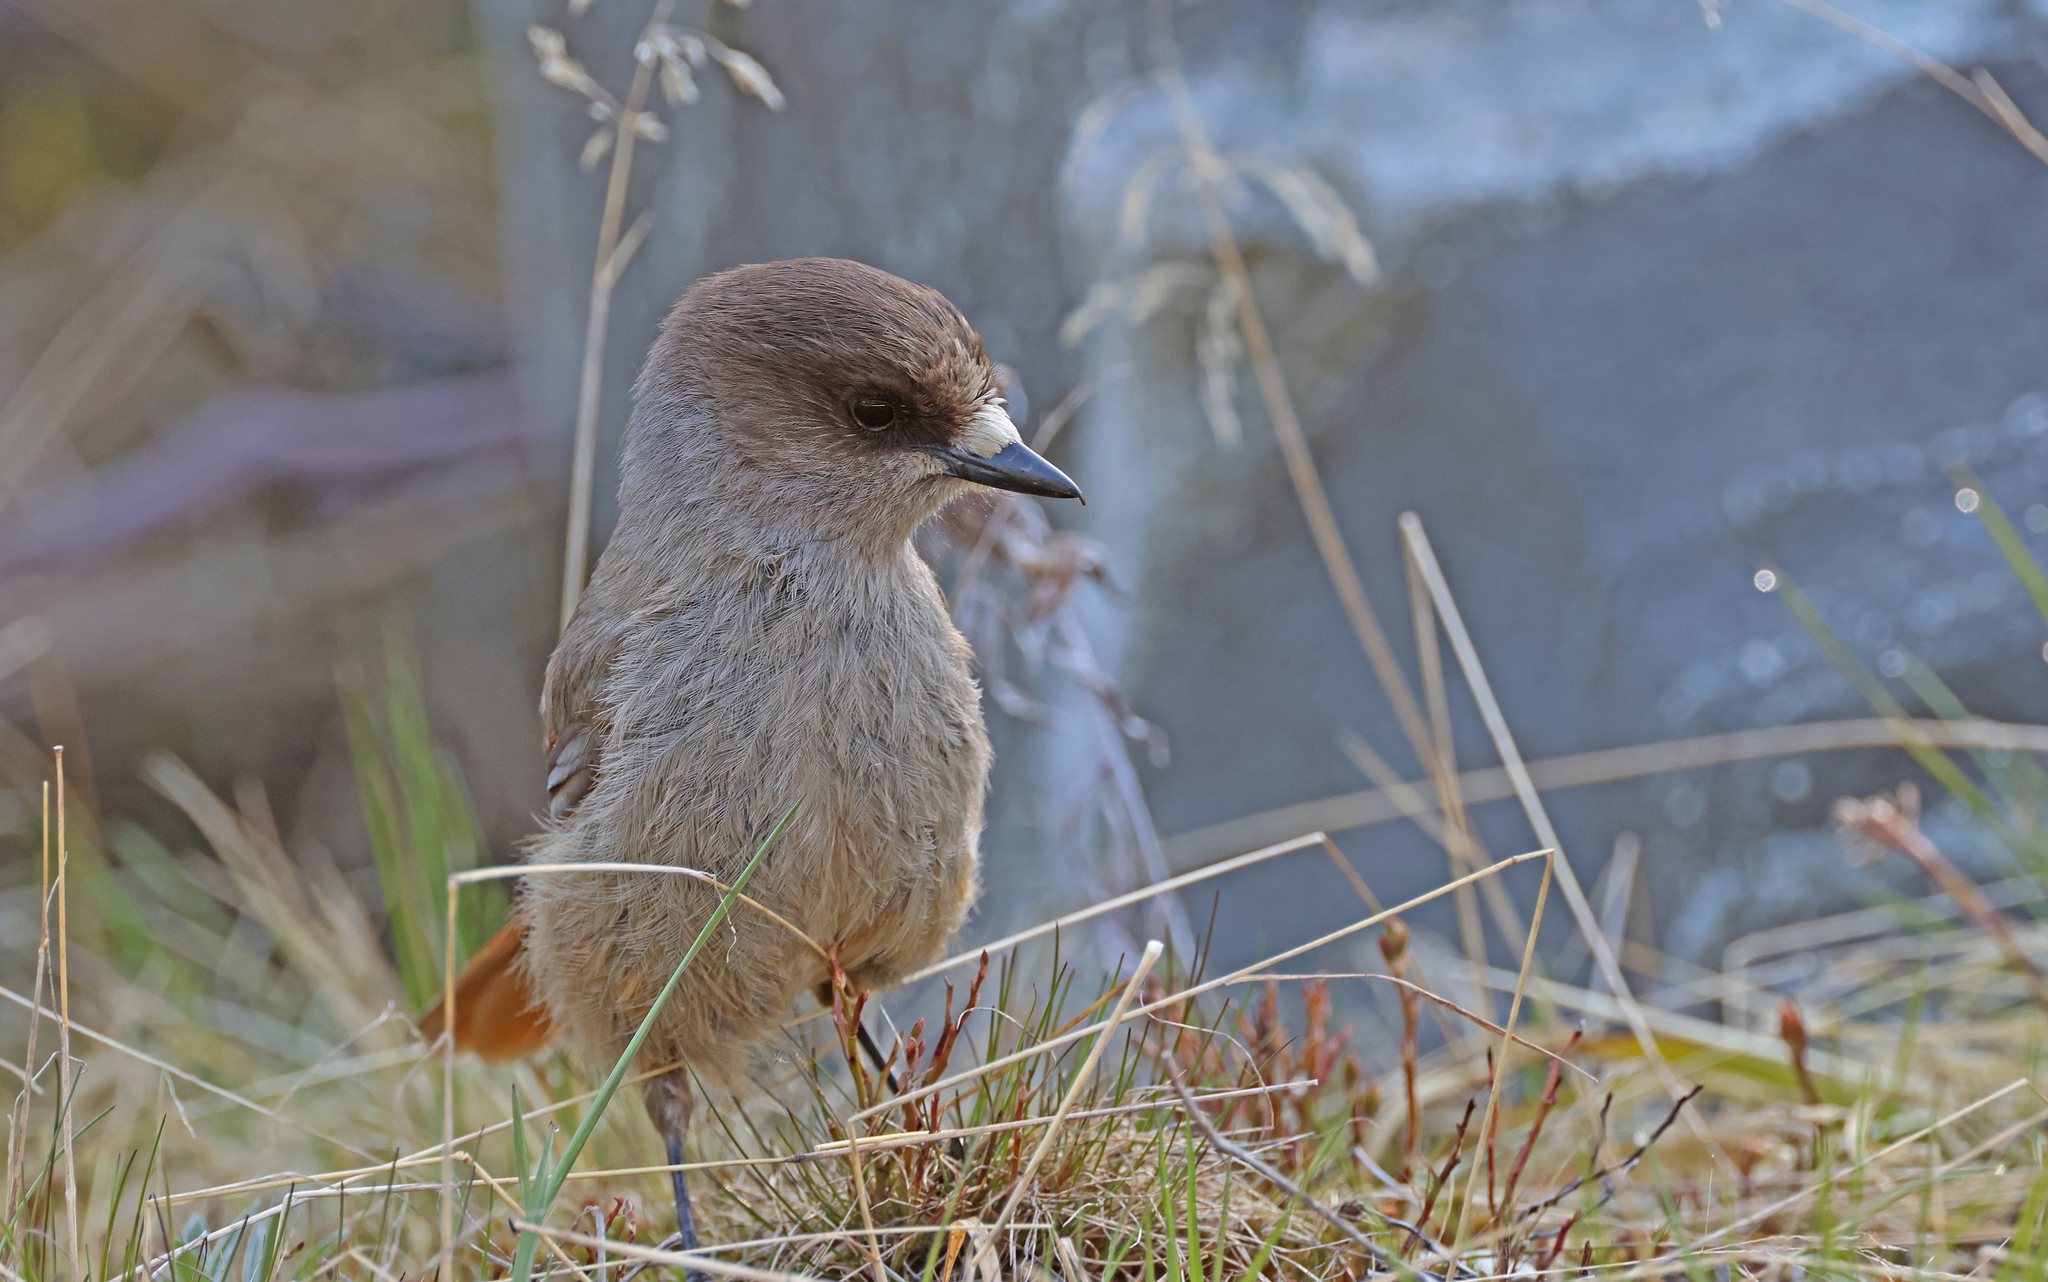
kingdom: Animalia
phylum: Chordata
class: Aves
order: Passeriformes
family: Corvidae
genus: Perisoreus
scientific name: Perisoreus infaustus
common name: Siberian jay
